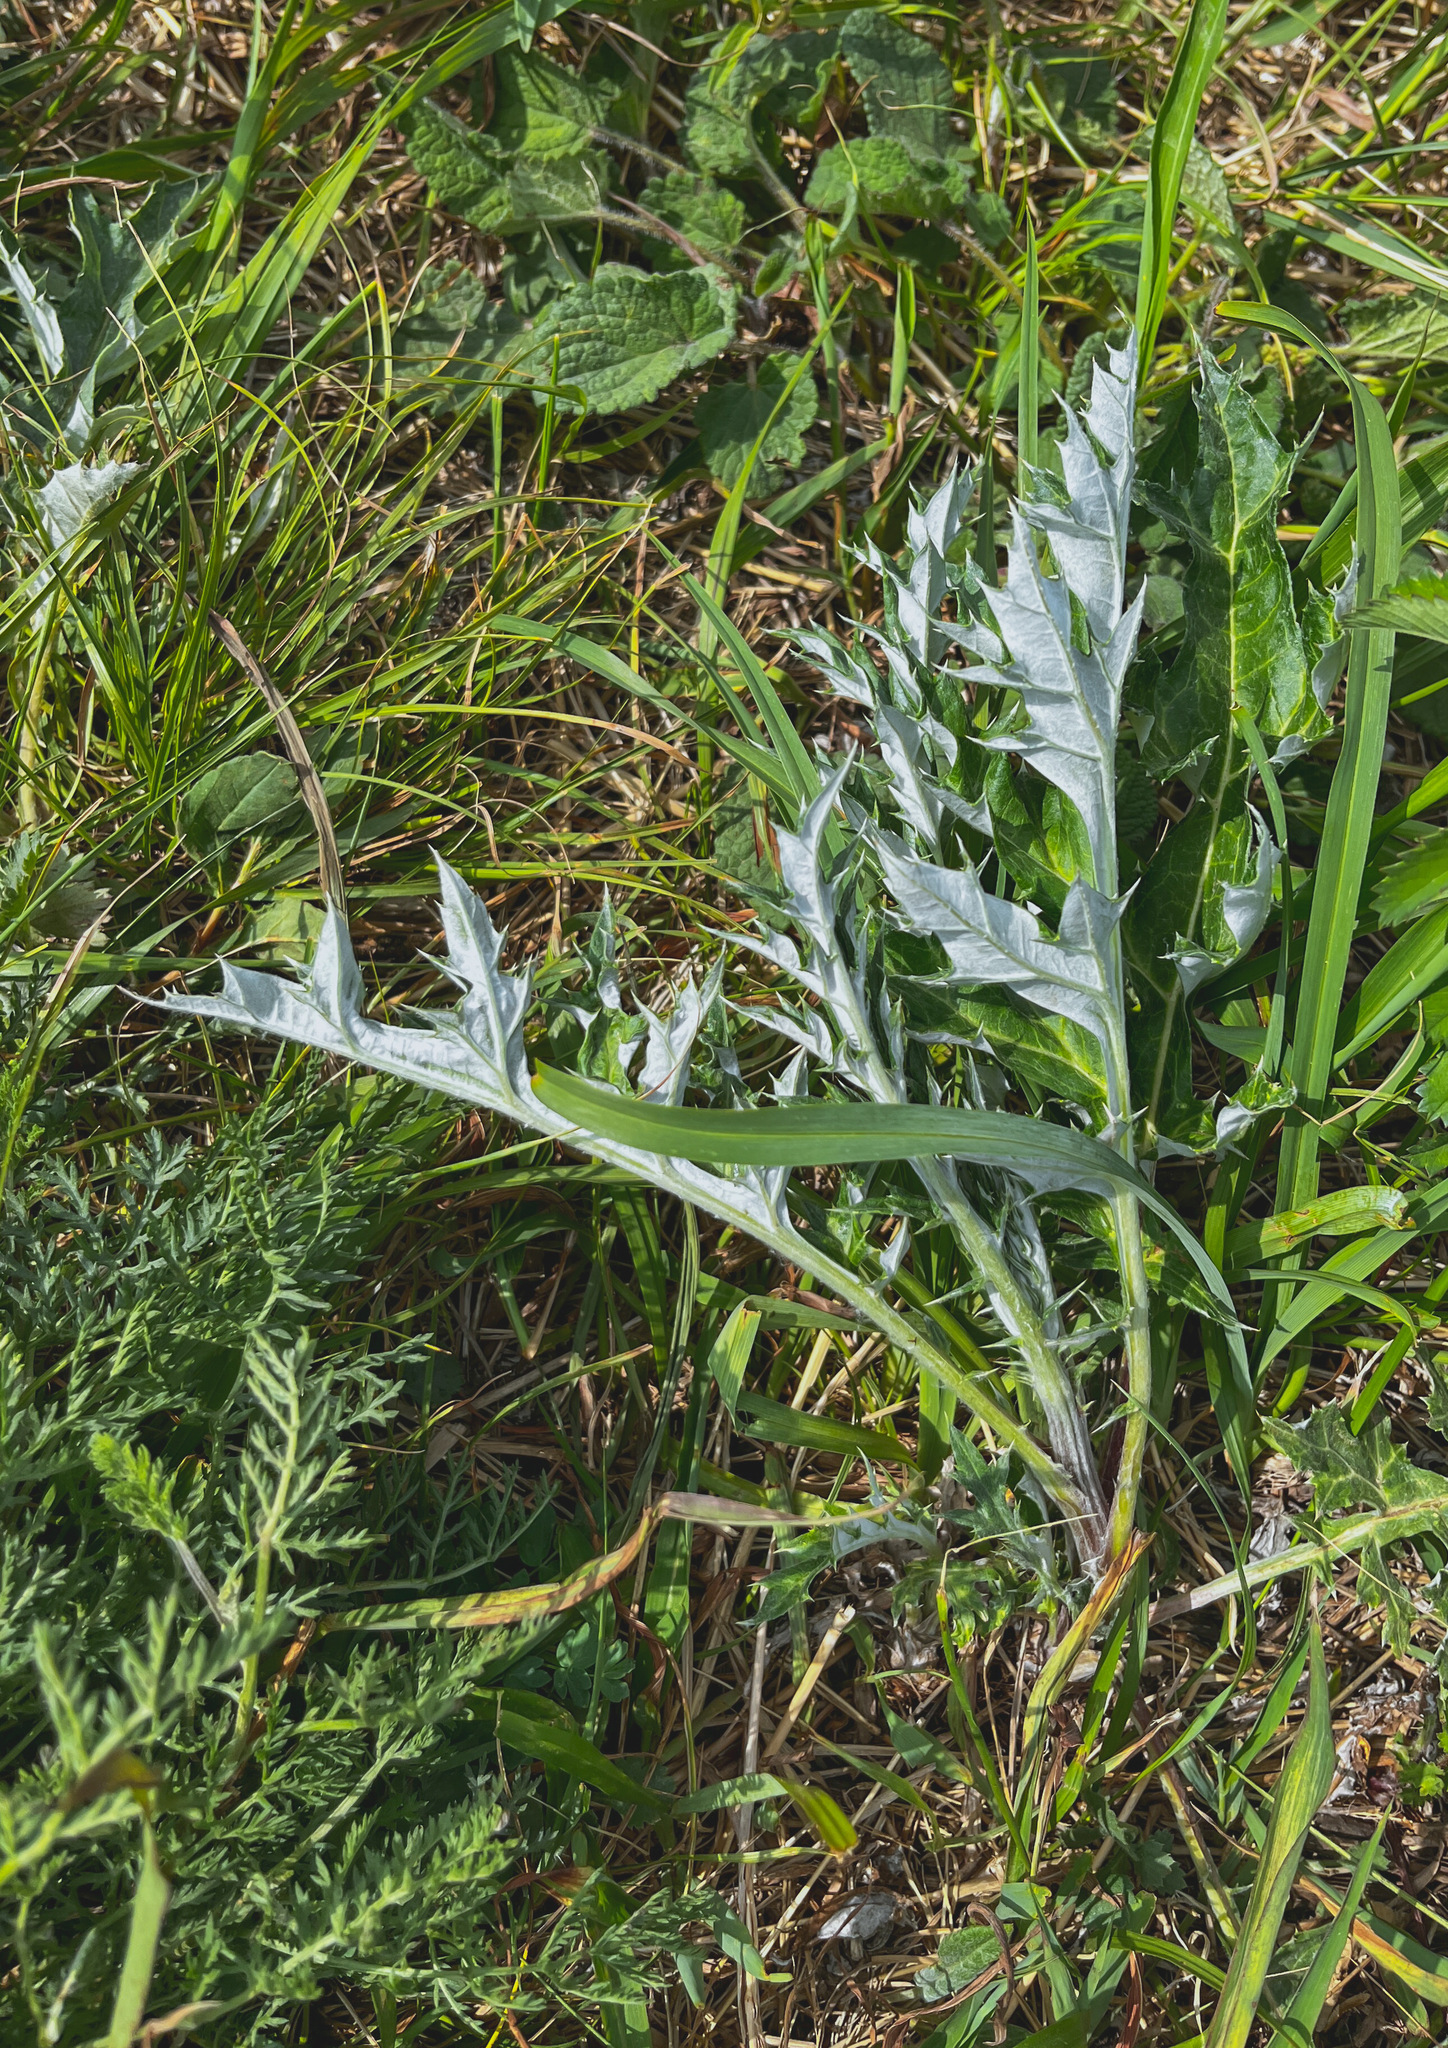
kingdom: Plantae
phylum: Tracheophyta
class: Magnoliopsida
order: Asterales
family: Asteraceae
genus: Echinops
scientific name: Echinops davuricus
